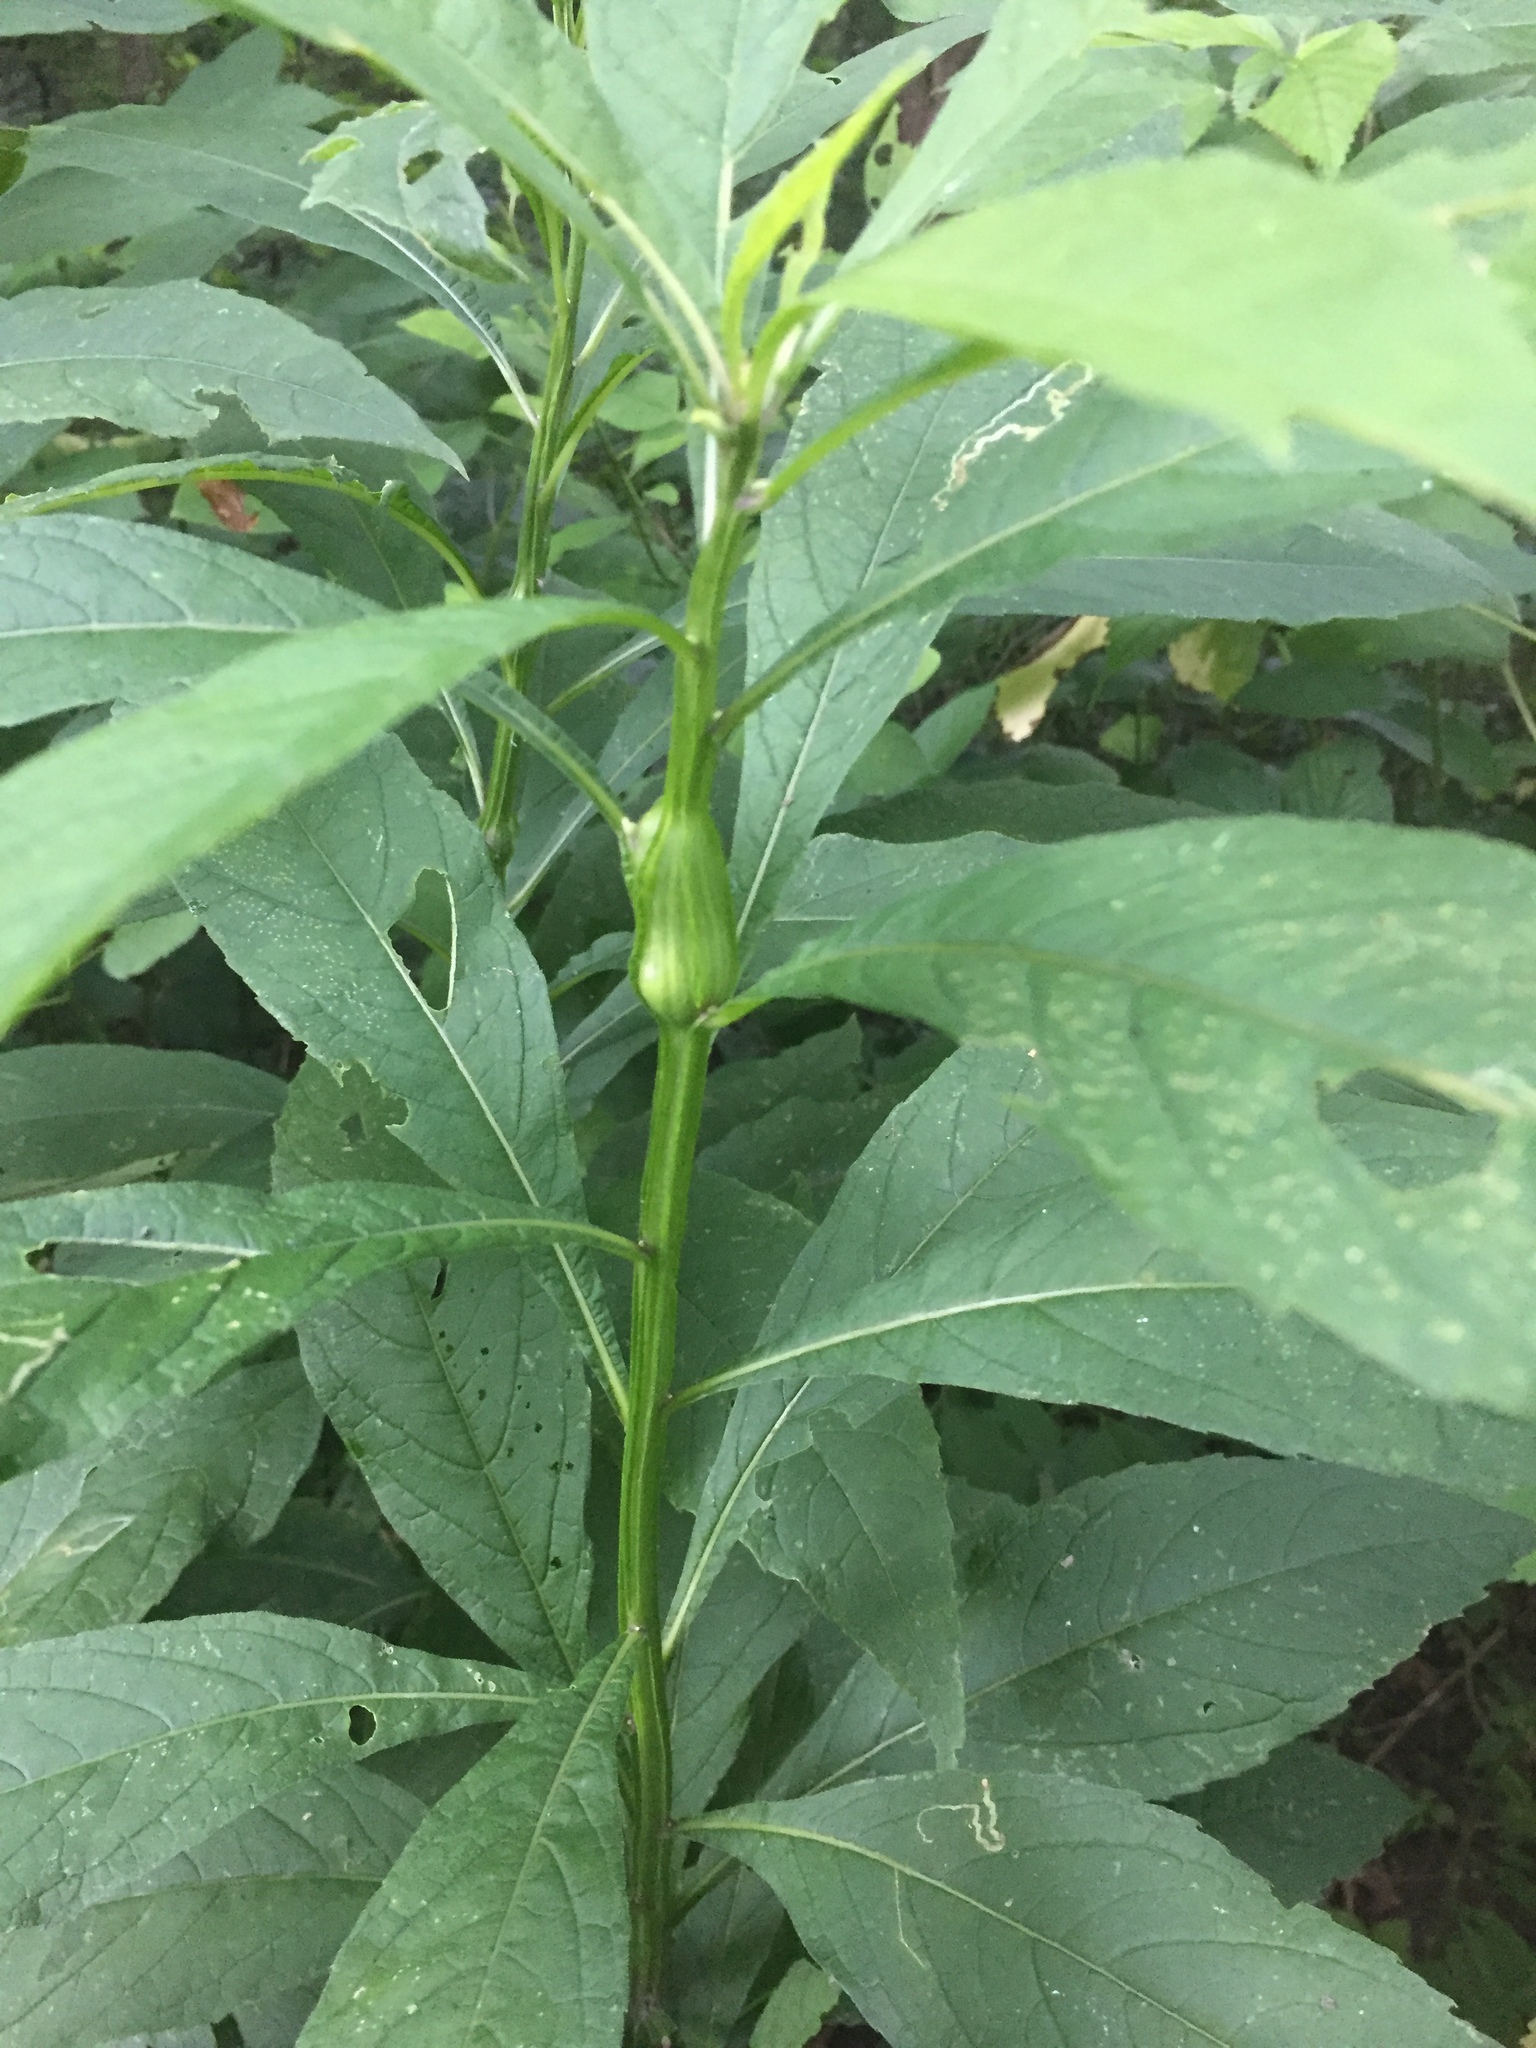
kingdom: Animalia
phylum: Arthropoda
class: Insecta
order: Diptera
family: Cecidomyiidae
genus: Neolasioptera
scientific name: Neolasioptera verbesinae
